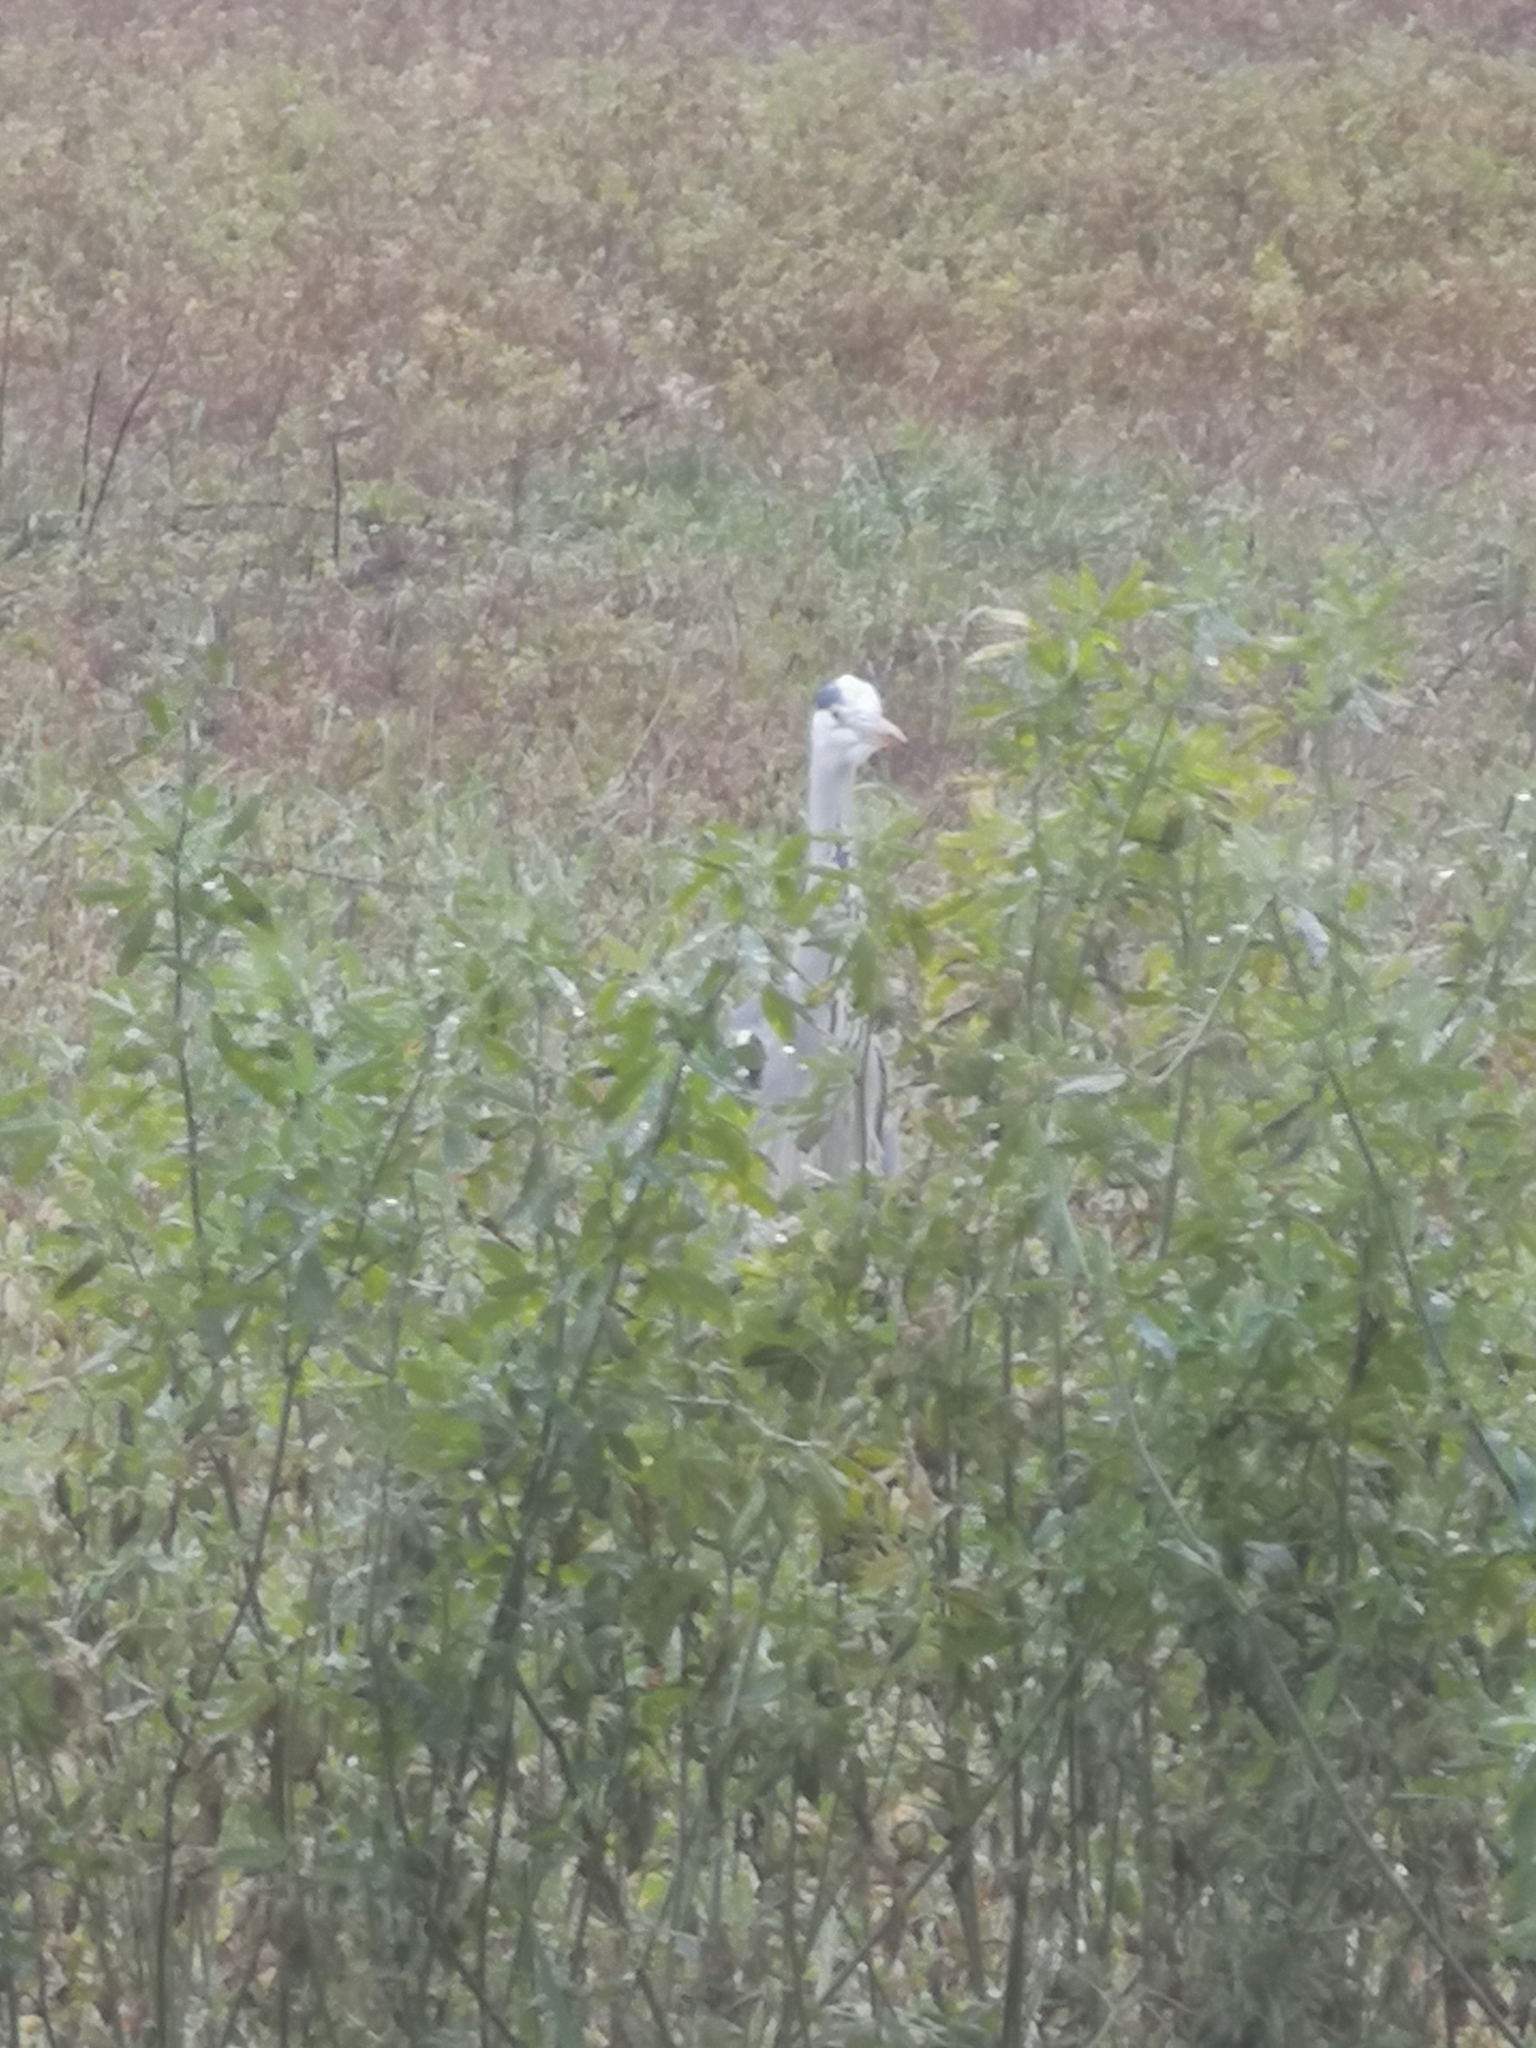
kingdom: Animalia
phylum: Chordata
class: Aves
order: Pelecaniformes
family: Ardeidae
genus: Ardea
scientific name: Ardea cinerea
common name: Grey heron
